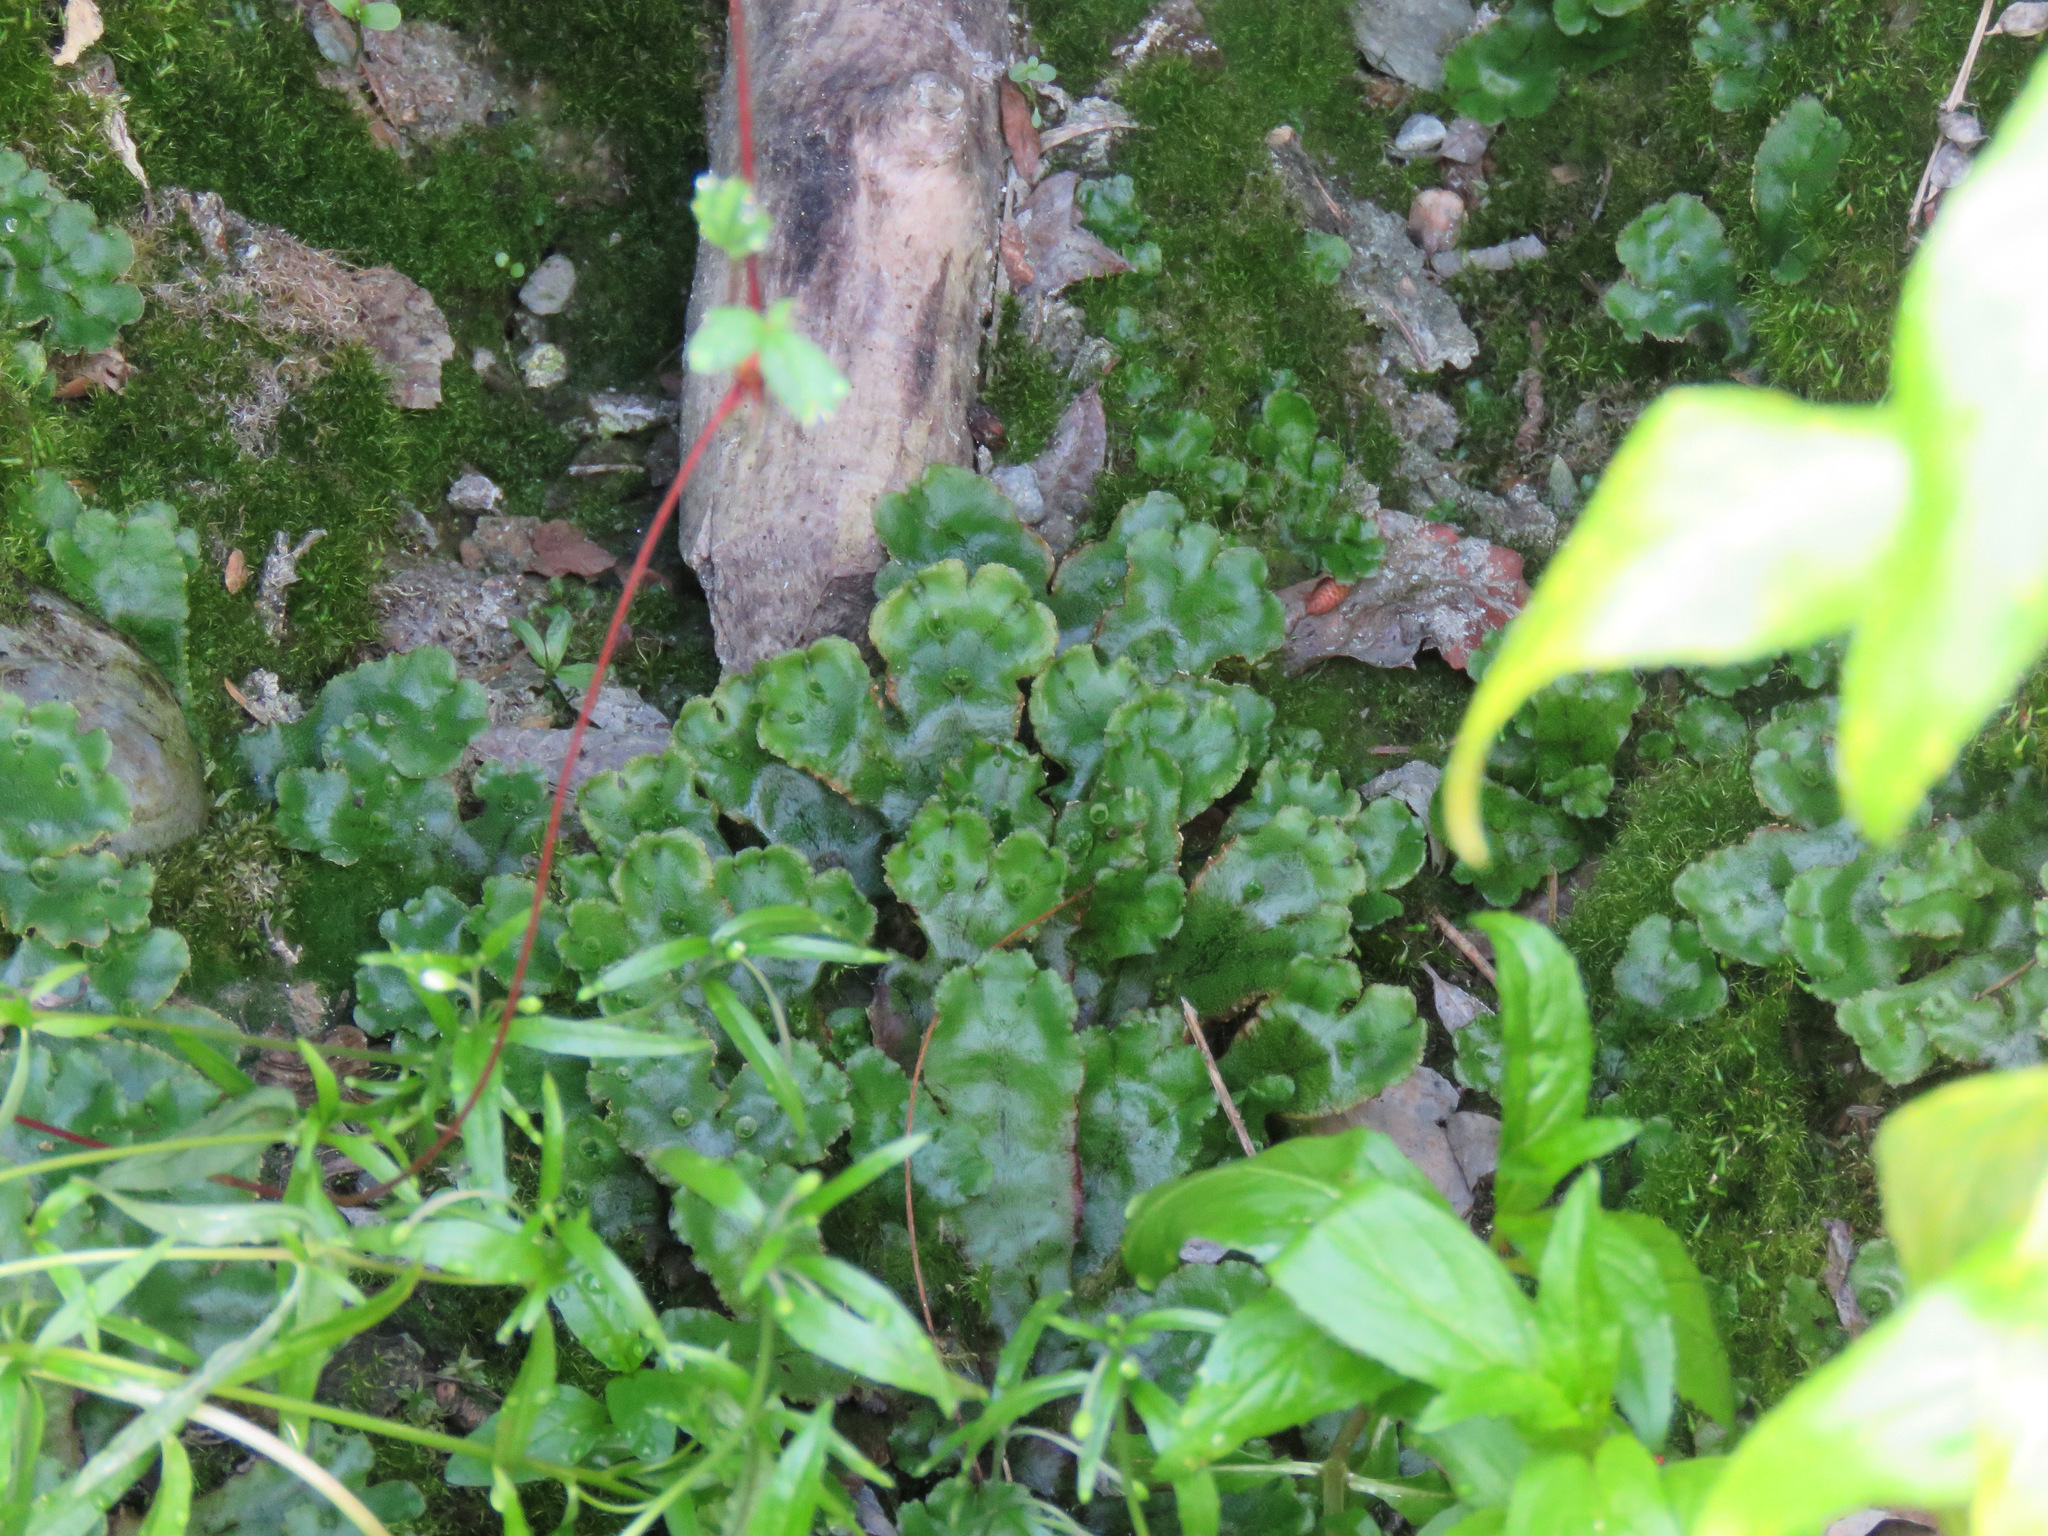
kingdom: Plantae
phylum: Marchantiophyta
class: Marchantiopsida
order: Marchantiales
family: Marchantiaceae
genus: Marchantia
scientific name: Marchantia polymorpha
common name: Common liverwort
